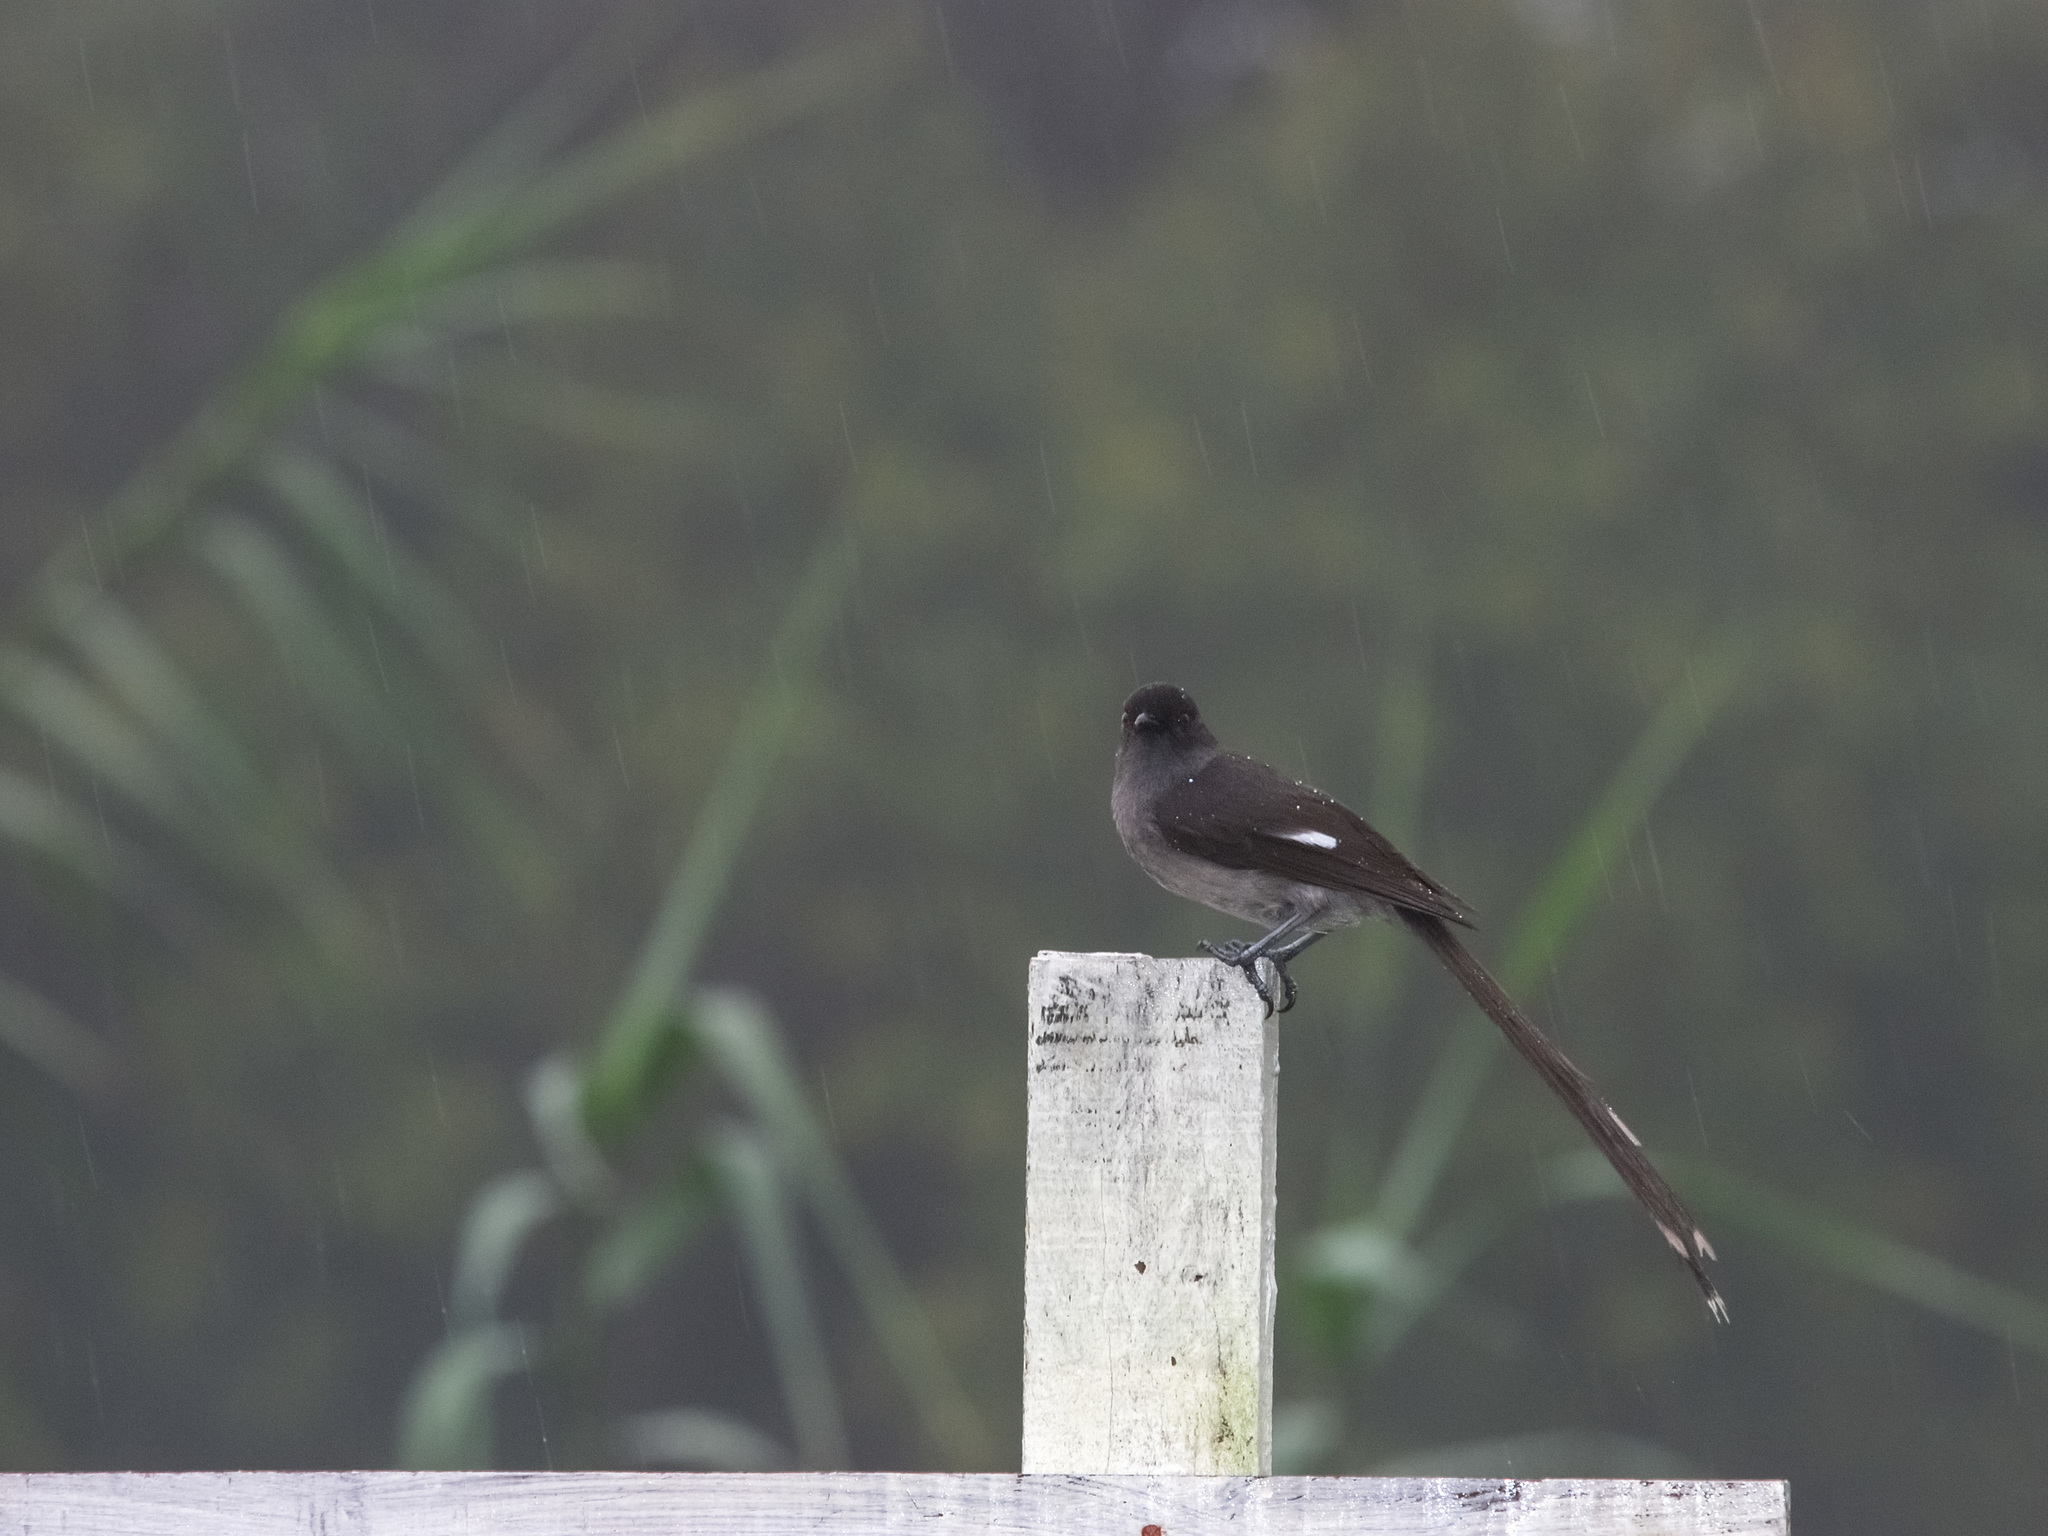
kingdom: Animalia
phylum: Chordata
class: Aves
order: Passeriformes
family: Leiothrichidae
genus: Heterophasia
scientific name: Heterophasia picaoides
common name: Long-tailed sibia
